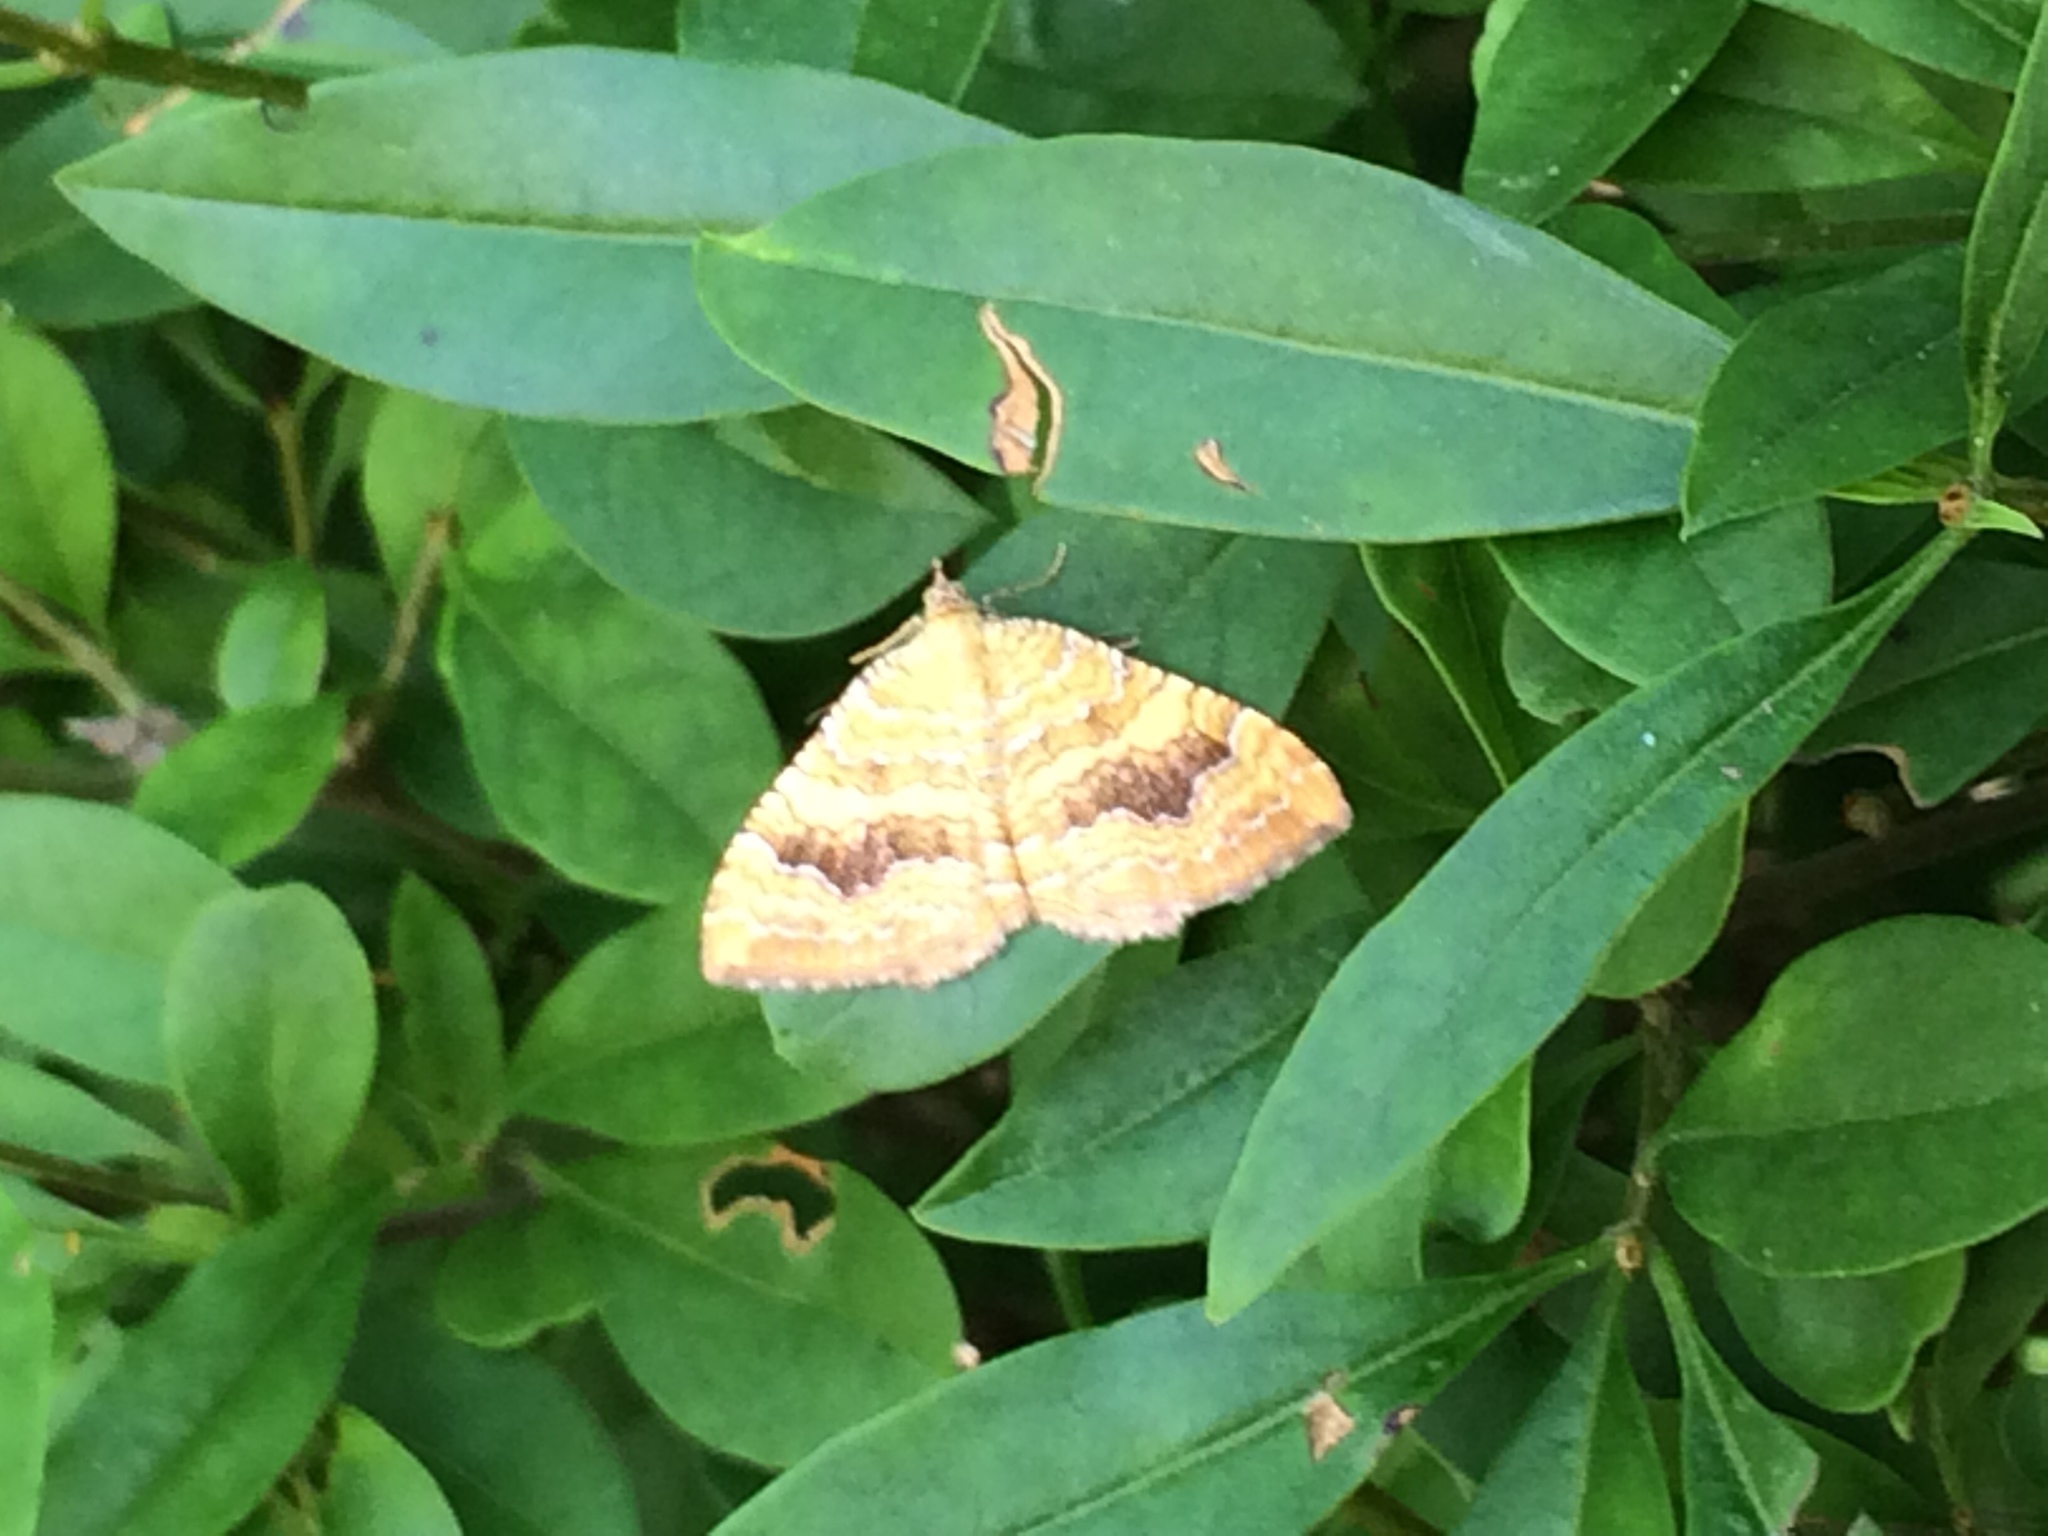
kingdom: Animalia
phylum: Arthropoda
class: Insecta
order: Lepidoptera
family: Geometridae
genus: Camptogramma
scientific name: Camptogramma bilineata
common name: Yellow shell
